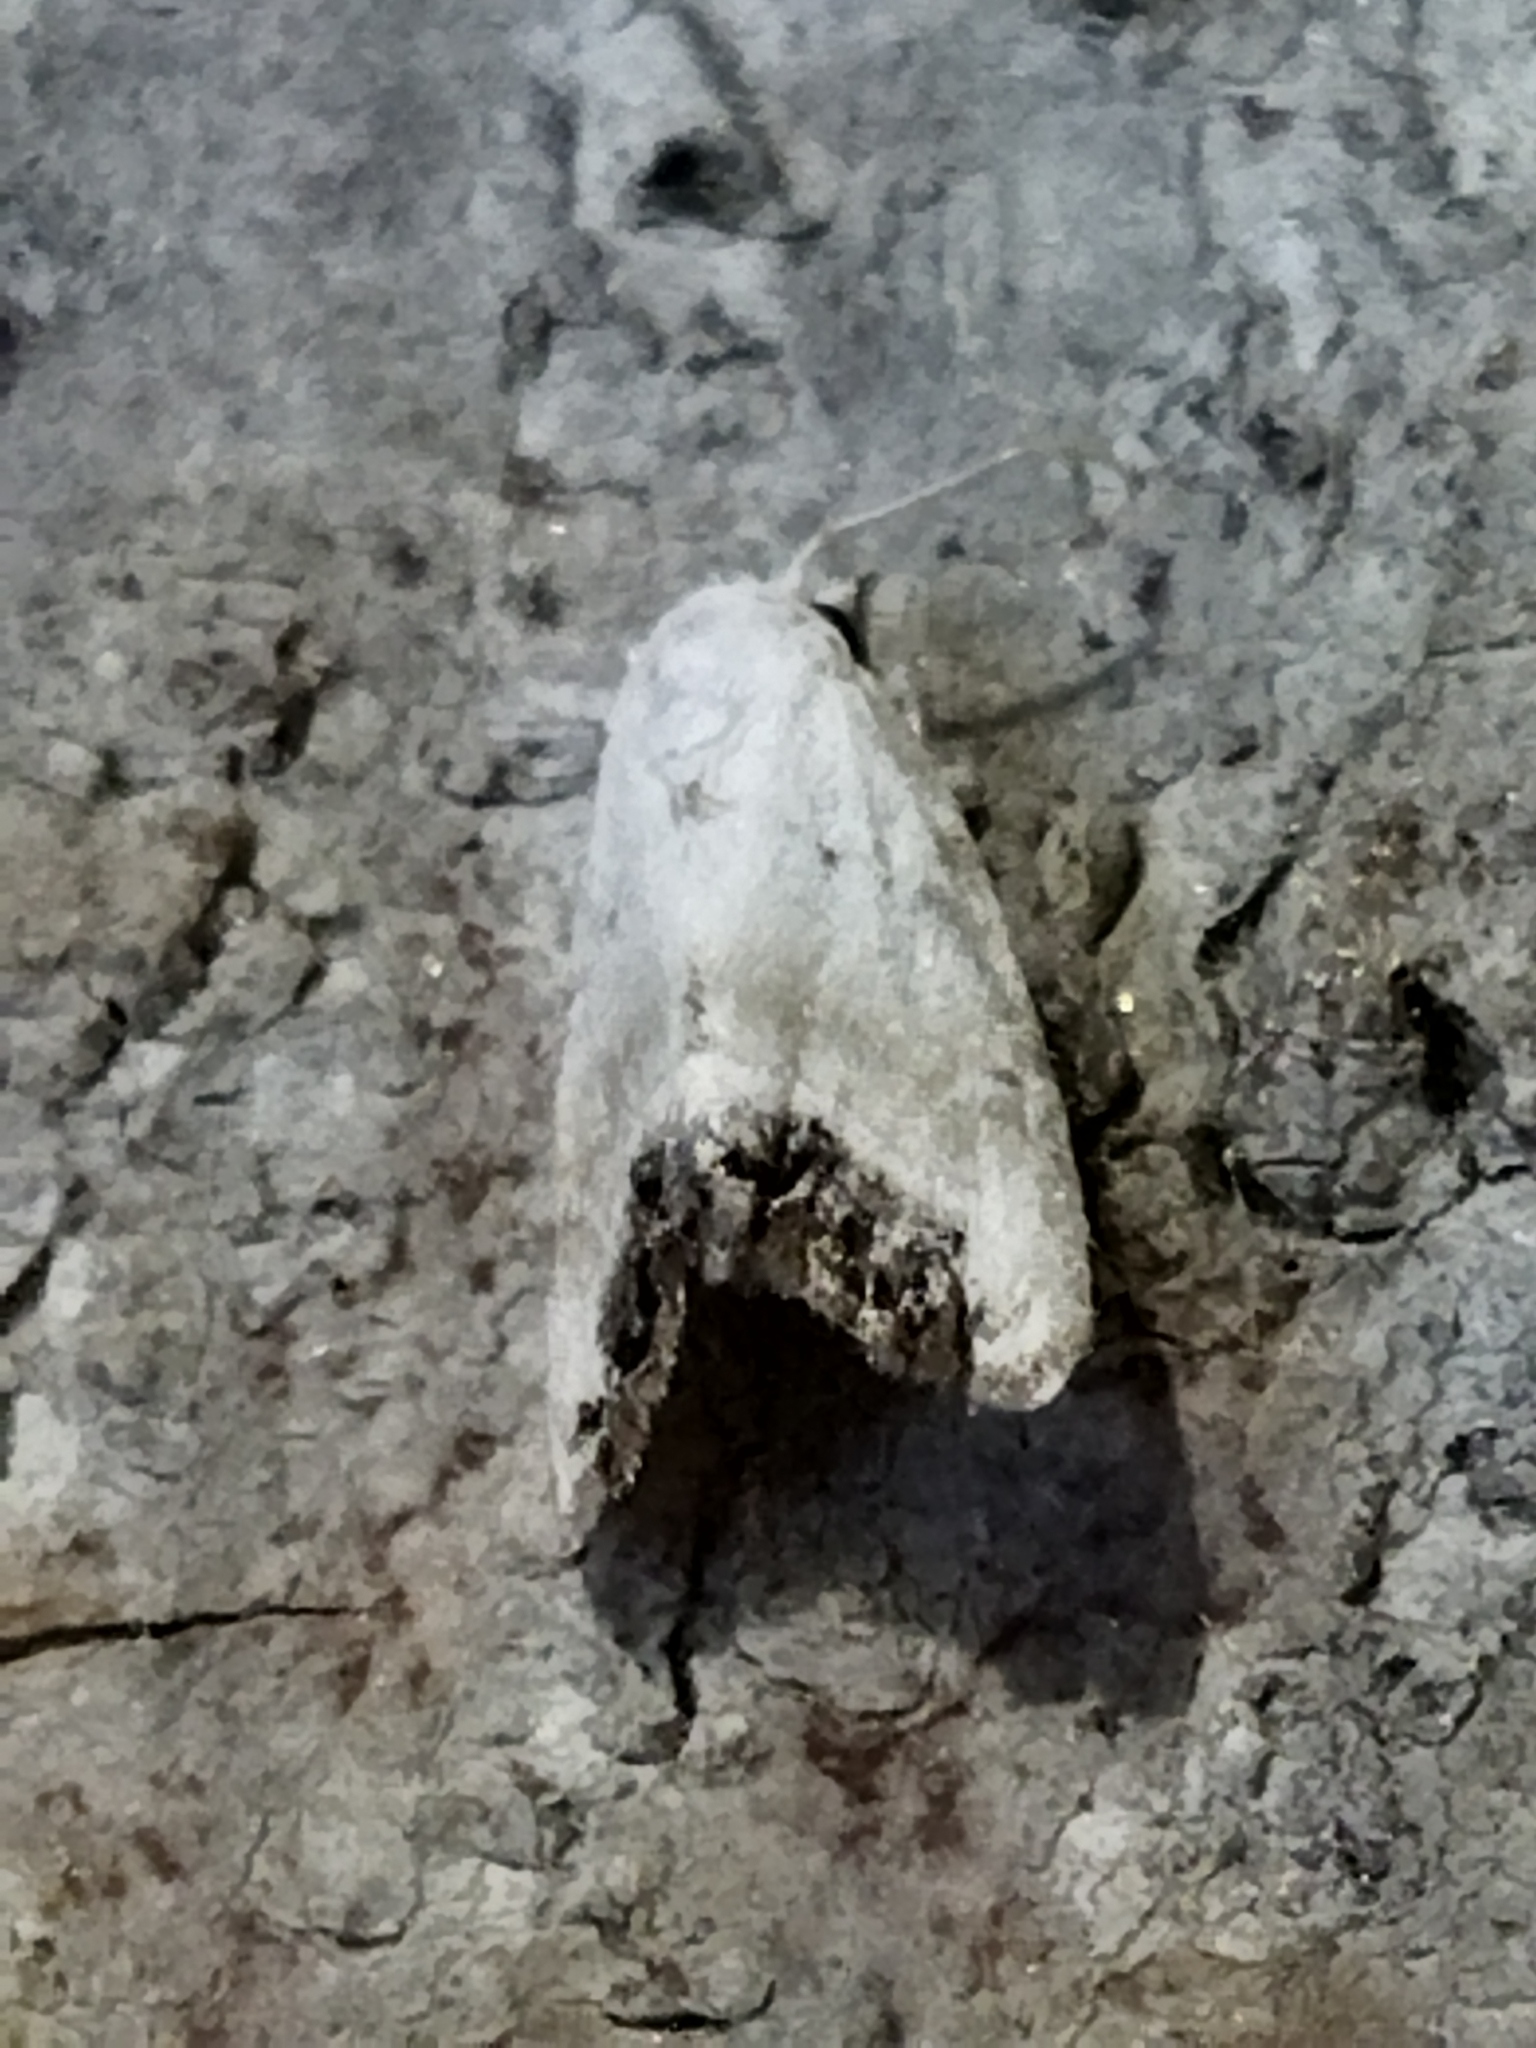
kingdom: Animalia
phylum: Arthropoda
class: Insecta
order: Lepidoptera
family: Nolidae
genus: Nola
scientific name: Nola chlamitulalis
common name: Jersey black arches
